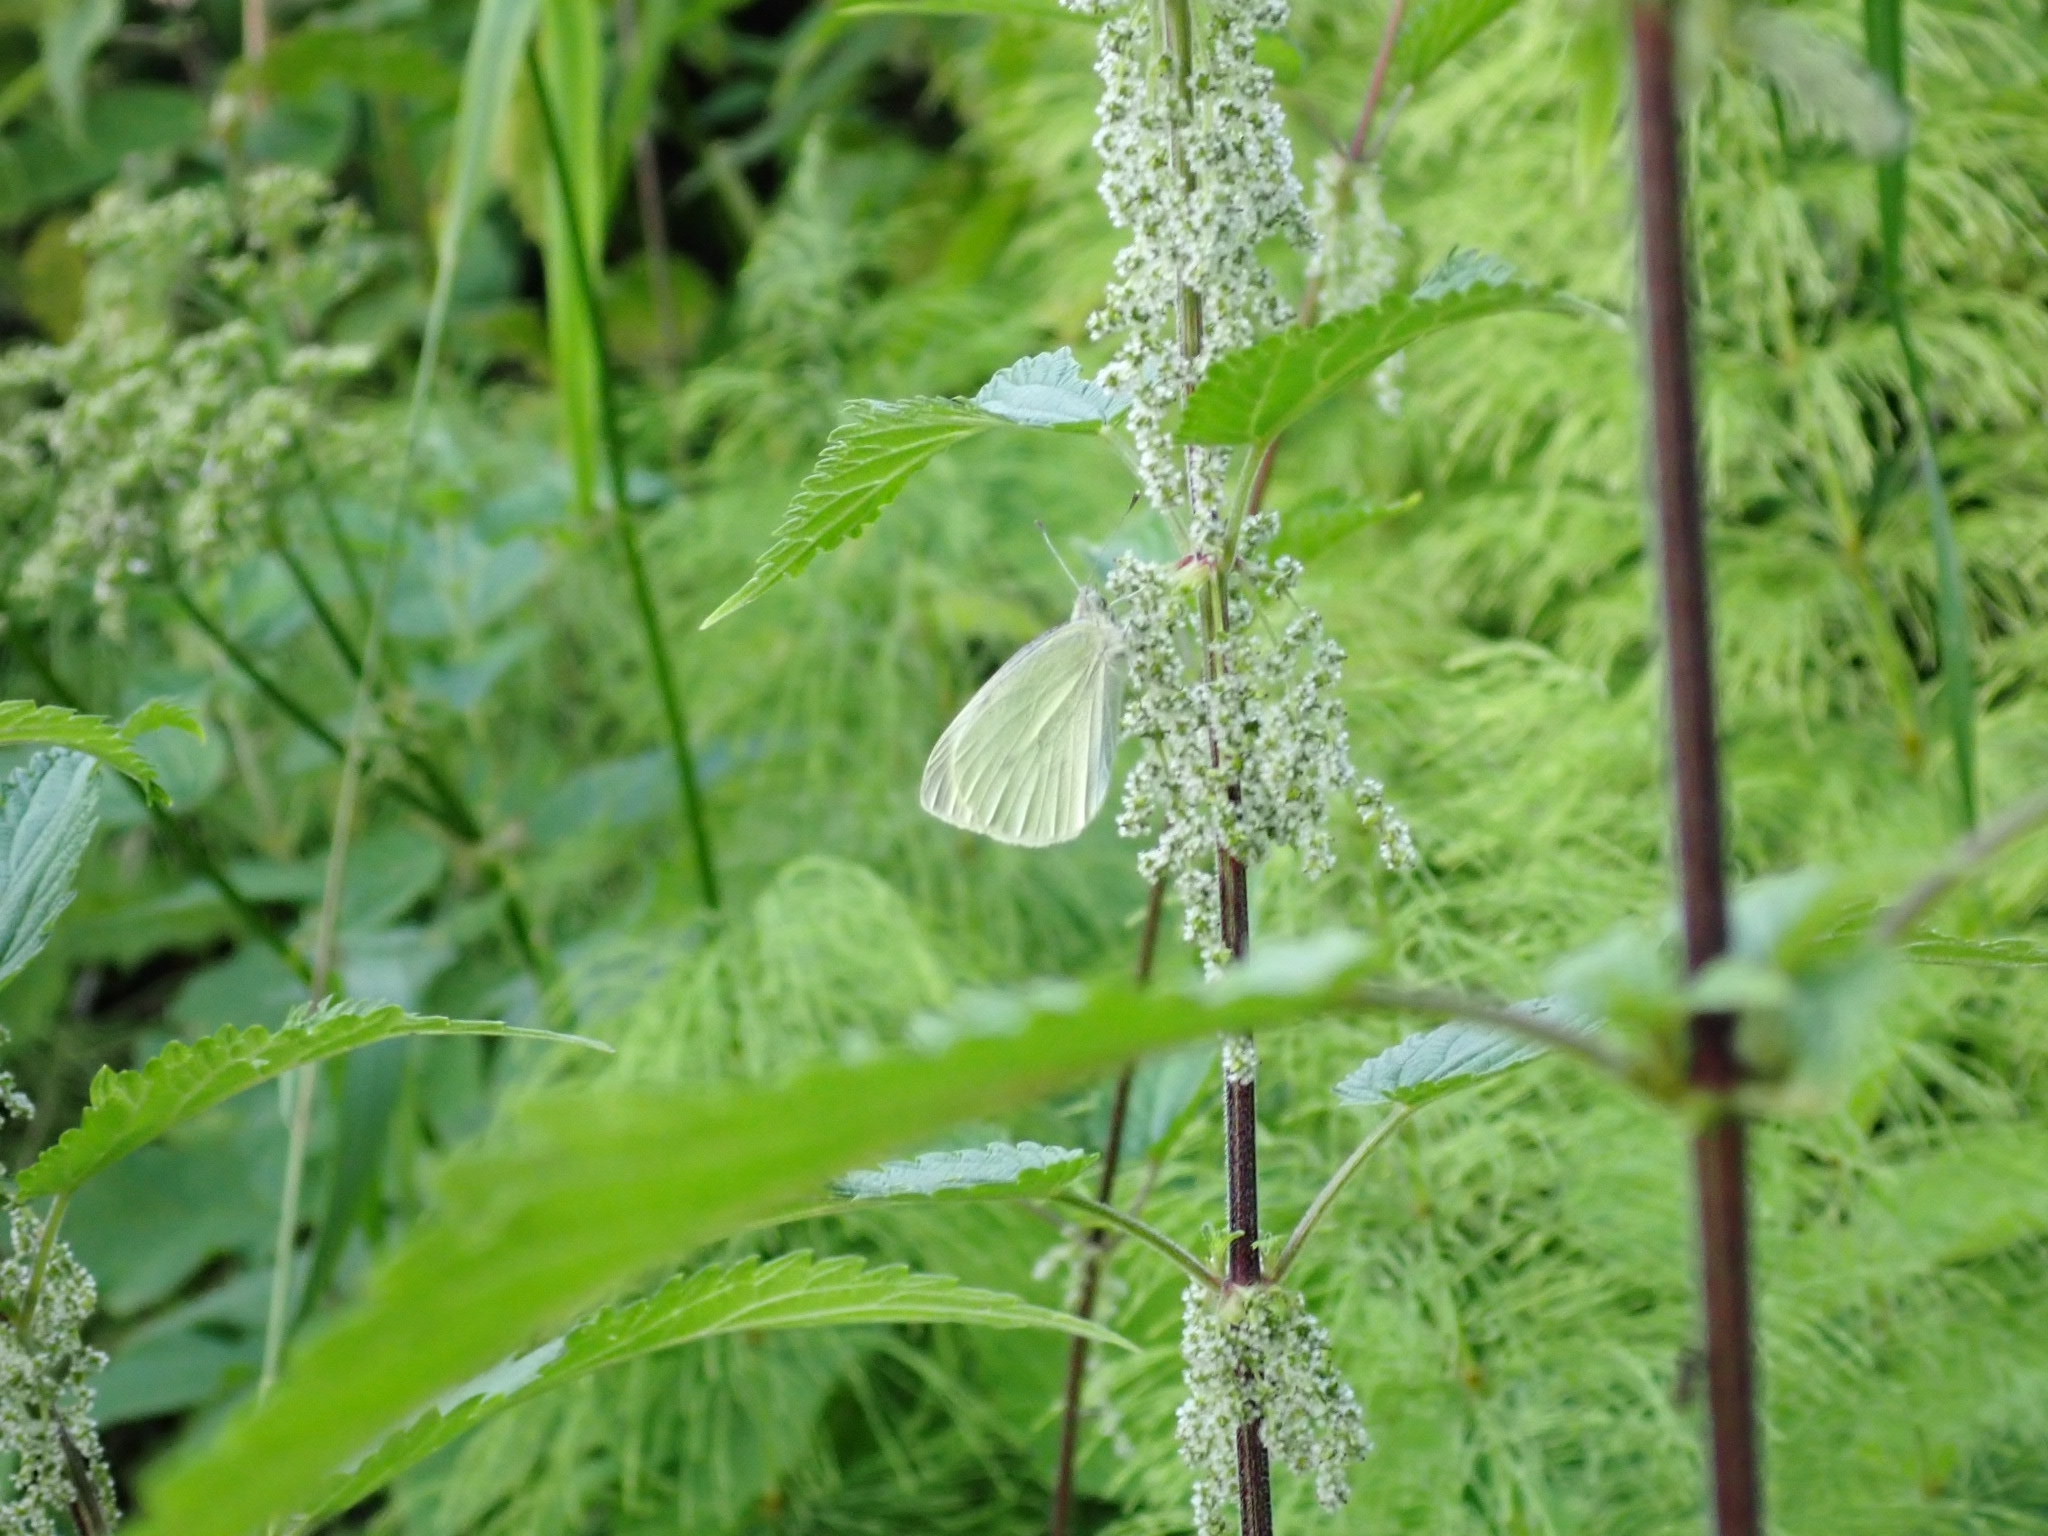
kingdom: Animalia
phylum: Arthropoda
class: Insecta
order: Lepidoptera
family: Pieridae
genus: Pieris
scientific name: Pieris rapae
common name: Small white
